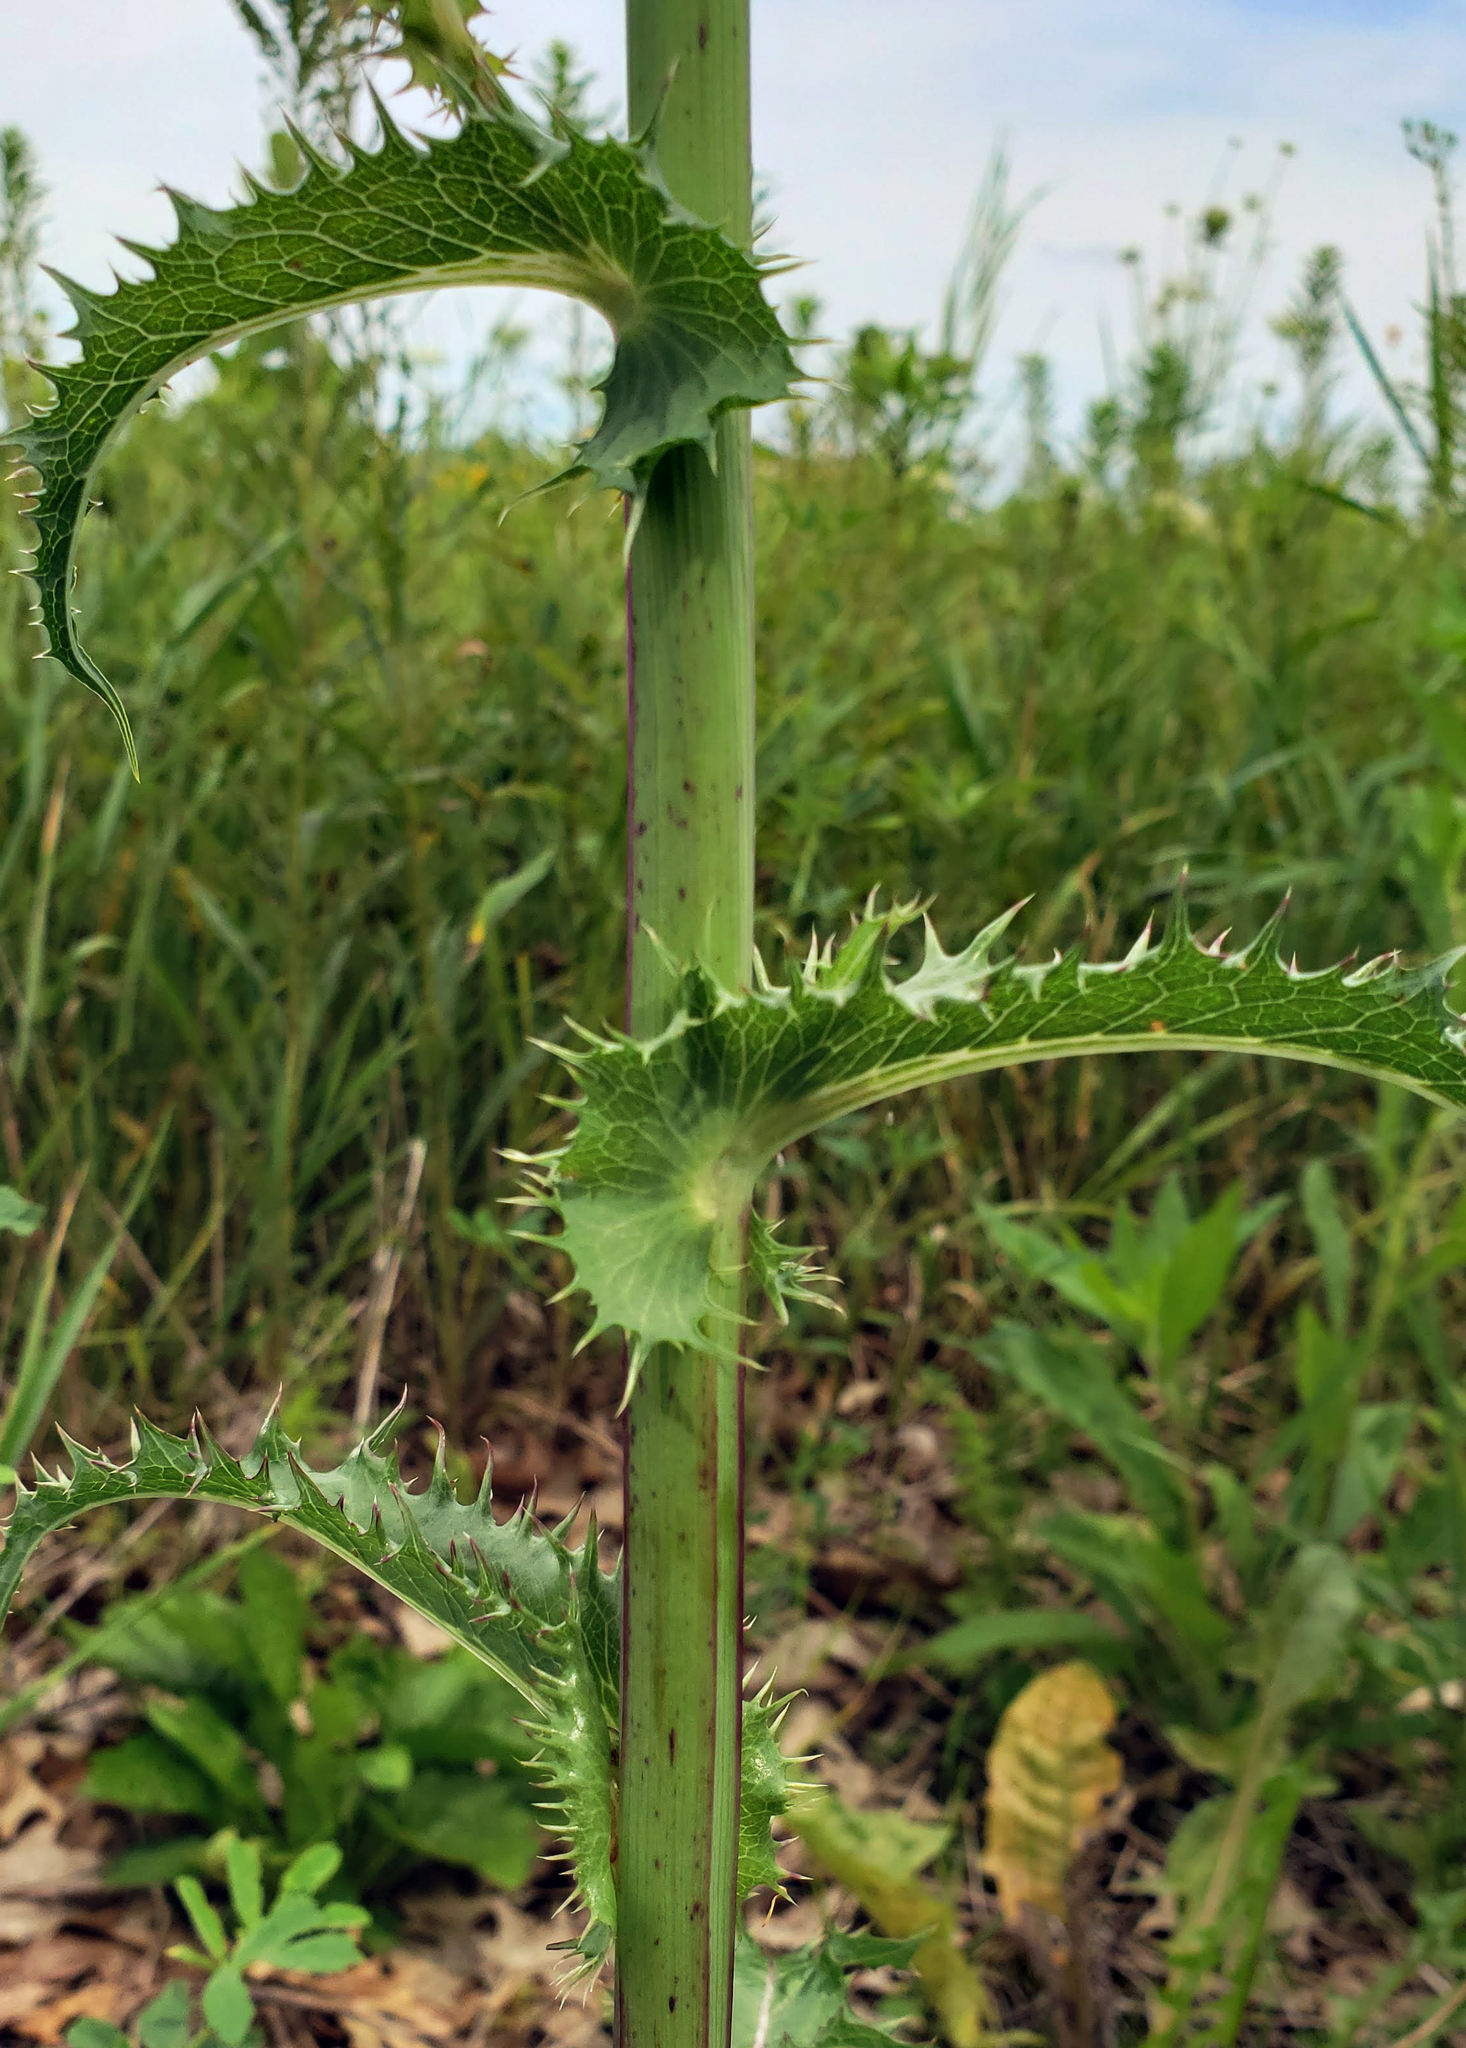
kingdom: Plantae
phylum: Tracheophyta
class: Magnoliopsida
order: Asterales
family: Asteraceae
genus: Sonchus
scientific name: Sonchus asper
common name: Prickly sow-thistle
